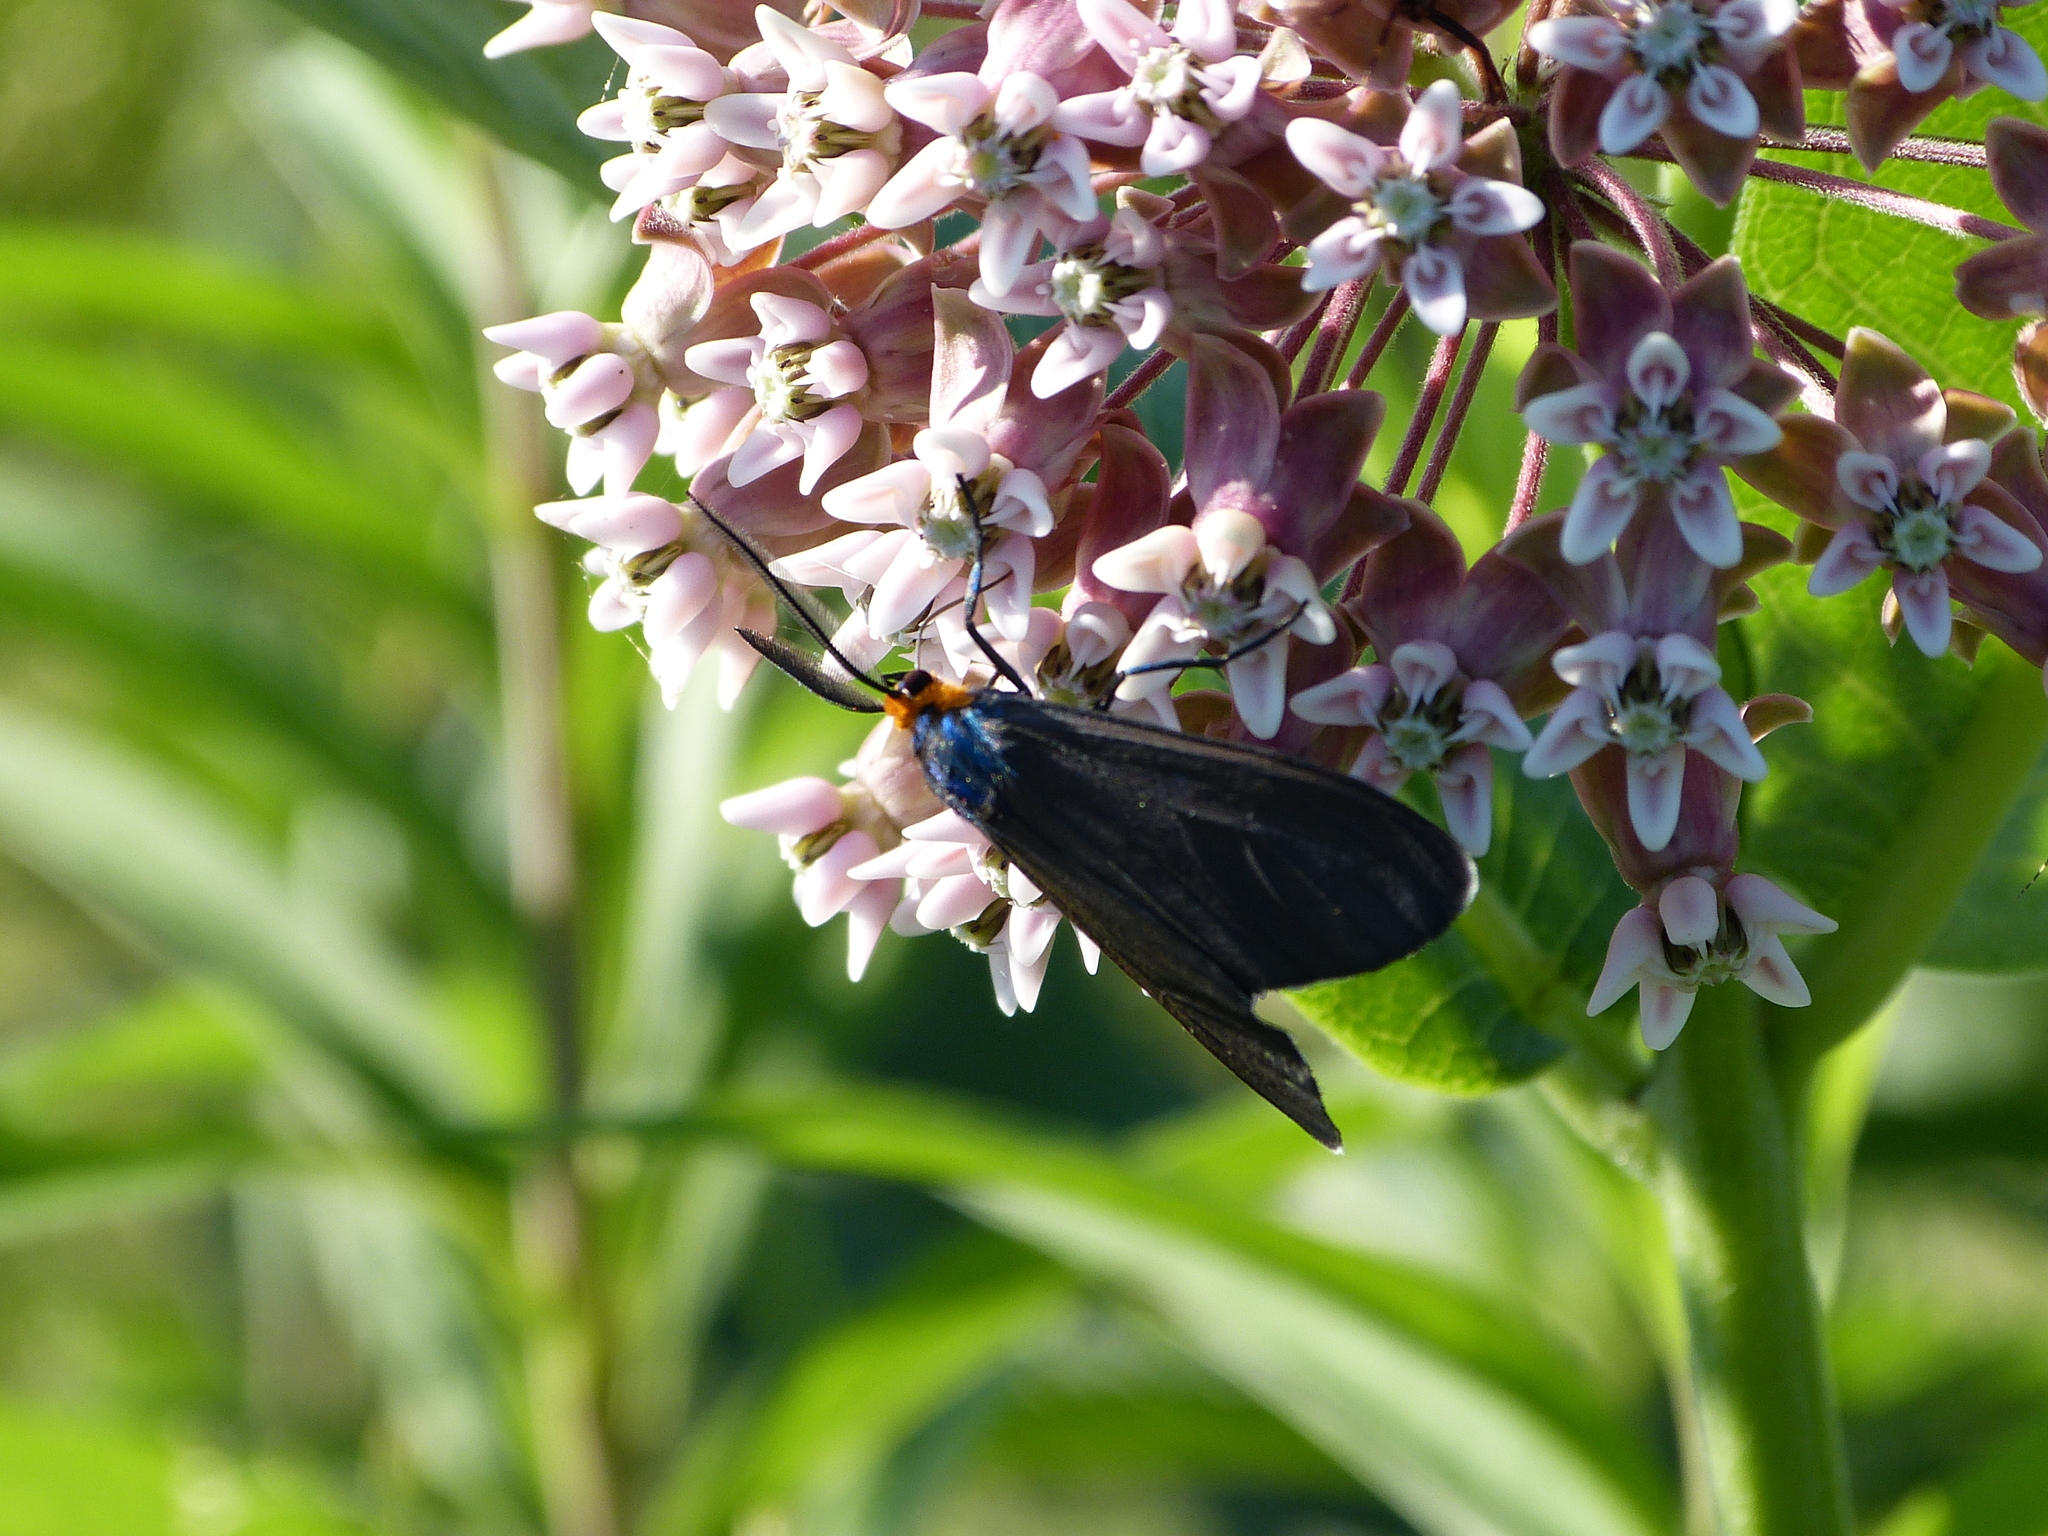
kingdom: Animalia
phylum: Arthropoda
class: Insecta
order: Lepidoptera
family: Erebidae
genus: Ctenucha
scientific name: Ctenucha virginica
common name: Virginia ctenucha moth
